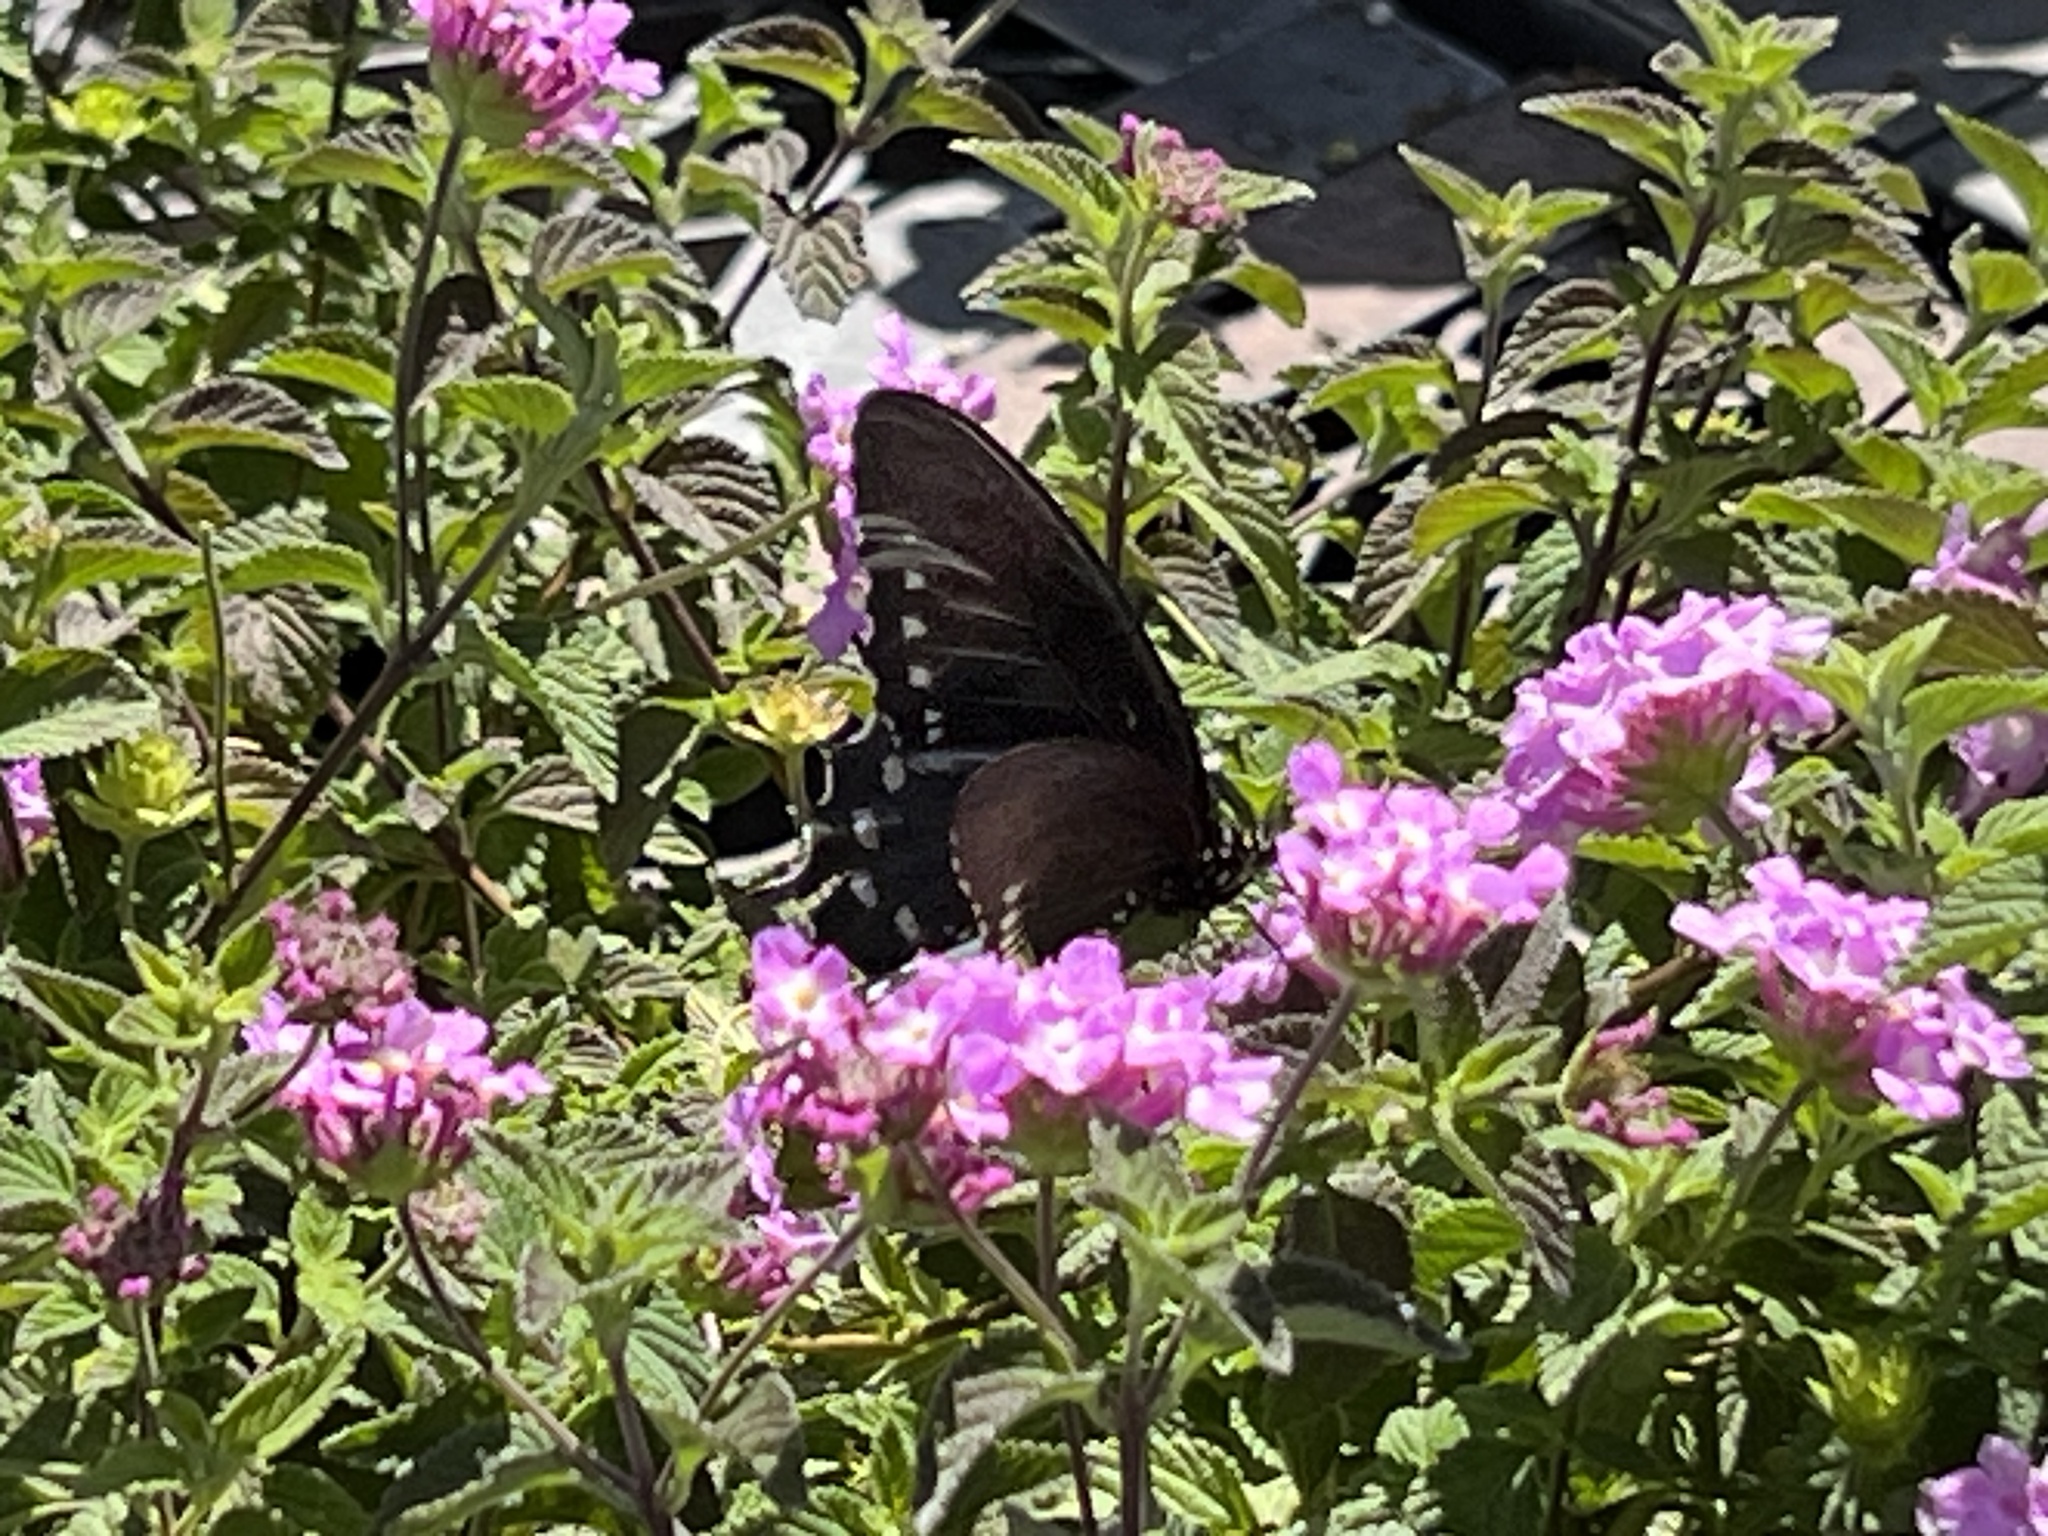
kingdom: Animalia
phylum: Arthropoda
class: Insecta
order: Lepidoptera
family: Papilionidae
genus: Battus
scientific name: Battus philenor
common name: Pipevine swallowtail
